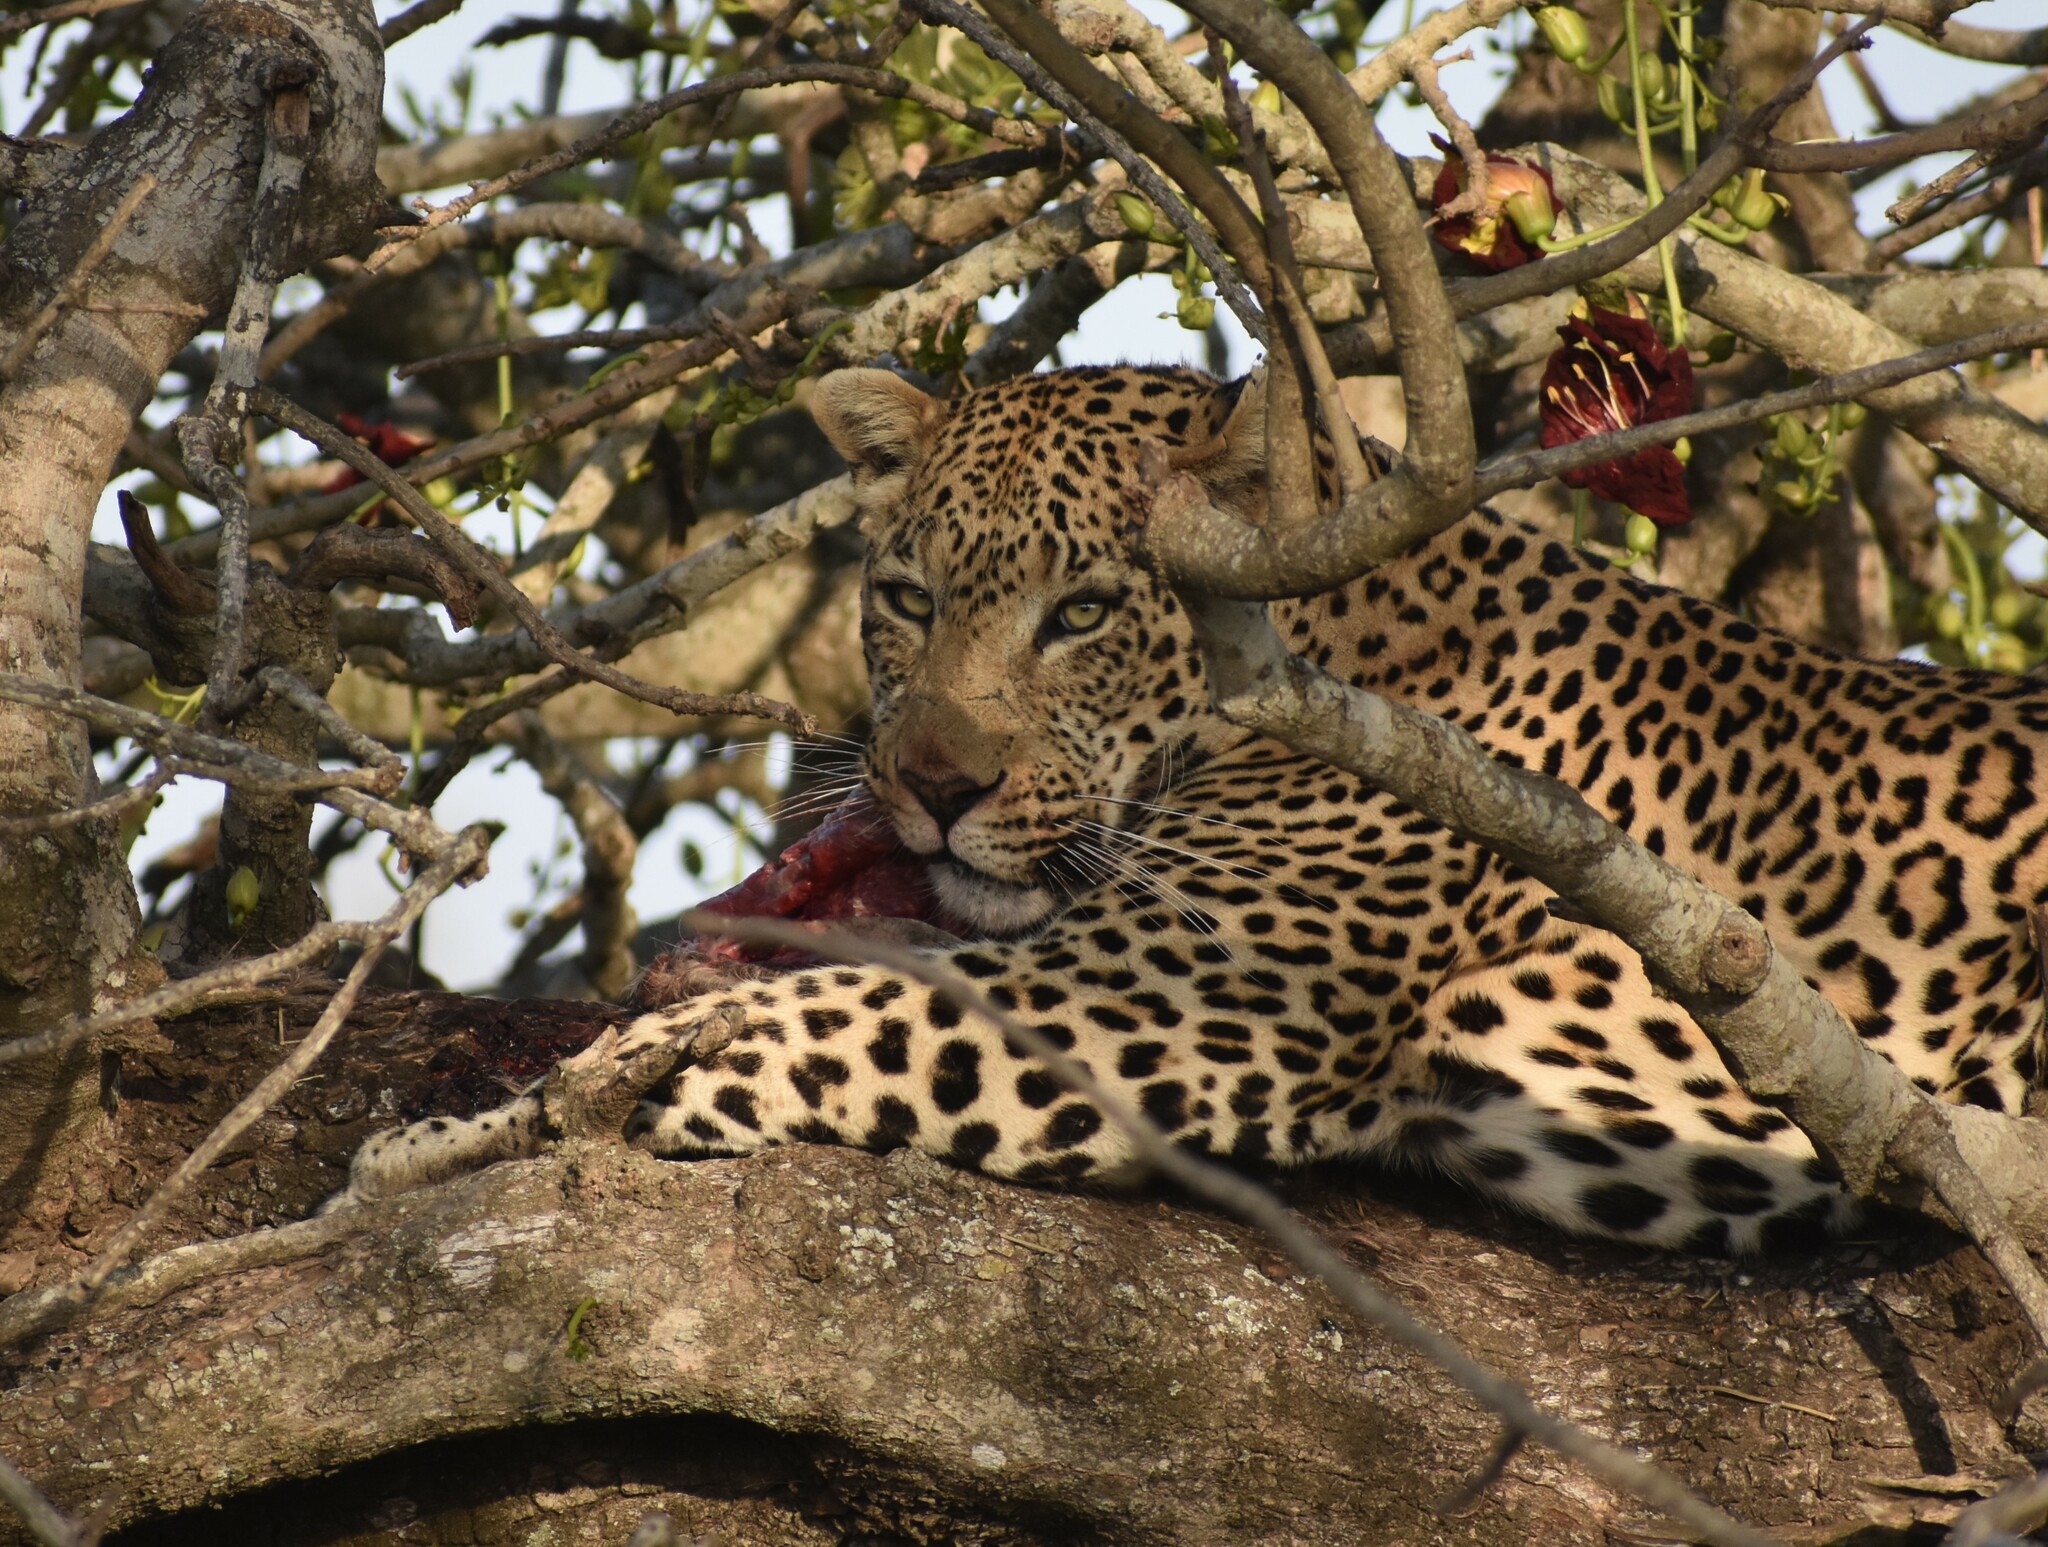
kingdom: Animalia
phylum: Chordata
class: Mammalia
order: Carnivora
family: Felidae
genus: Panthera
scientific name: Panthera pardus
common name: Leopard
